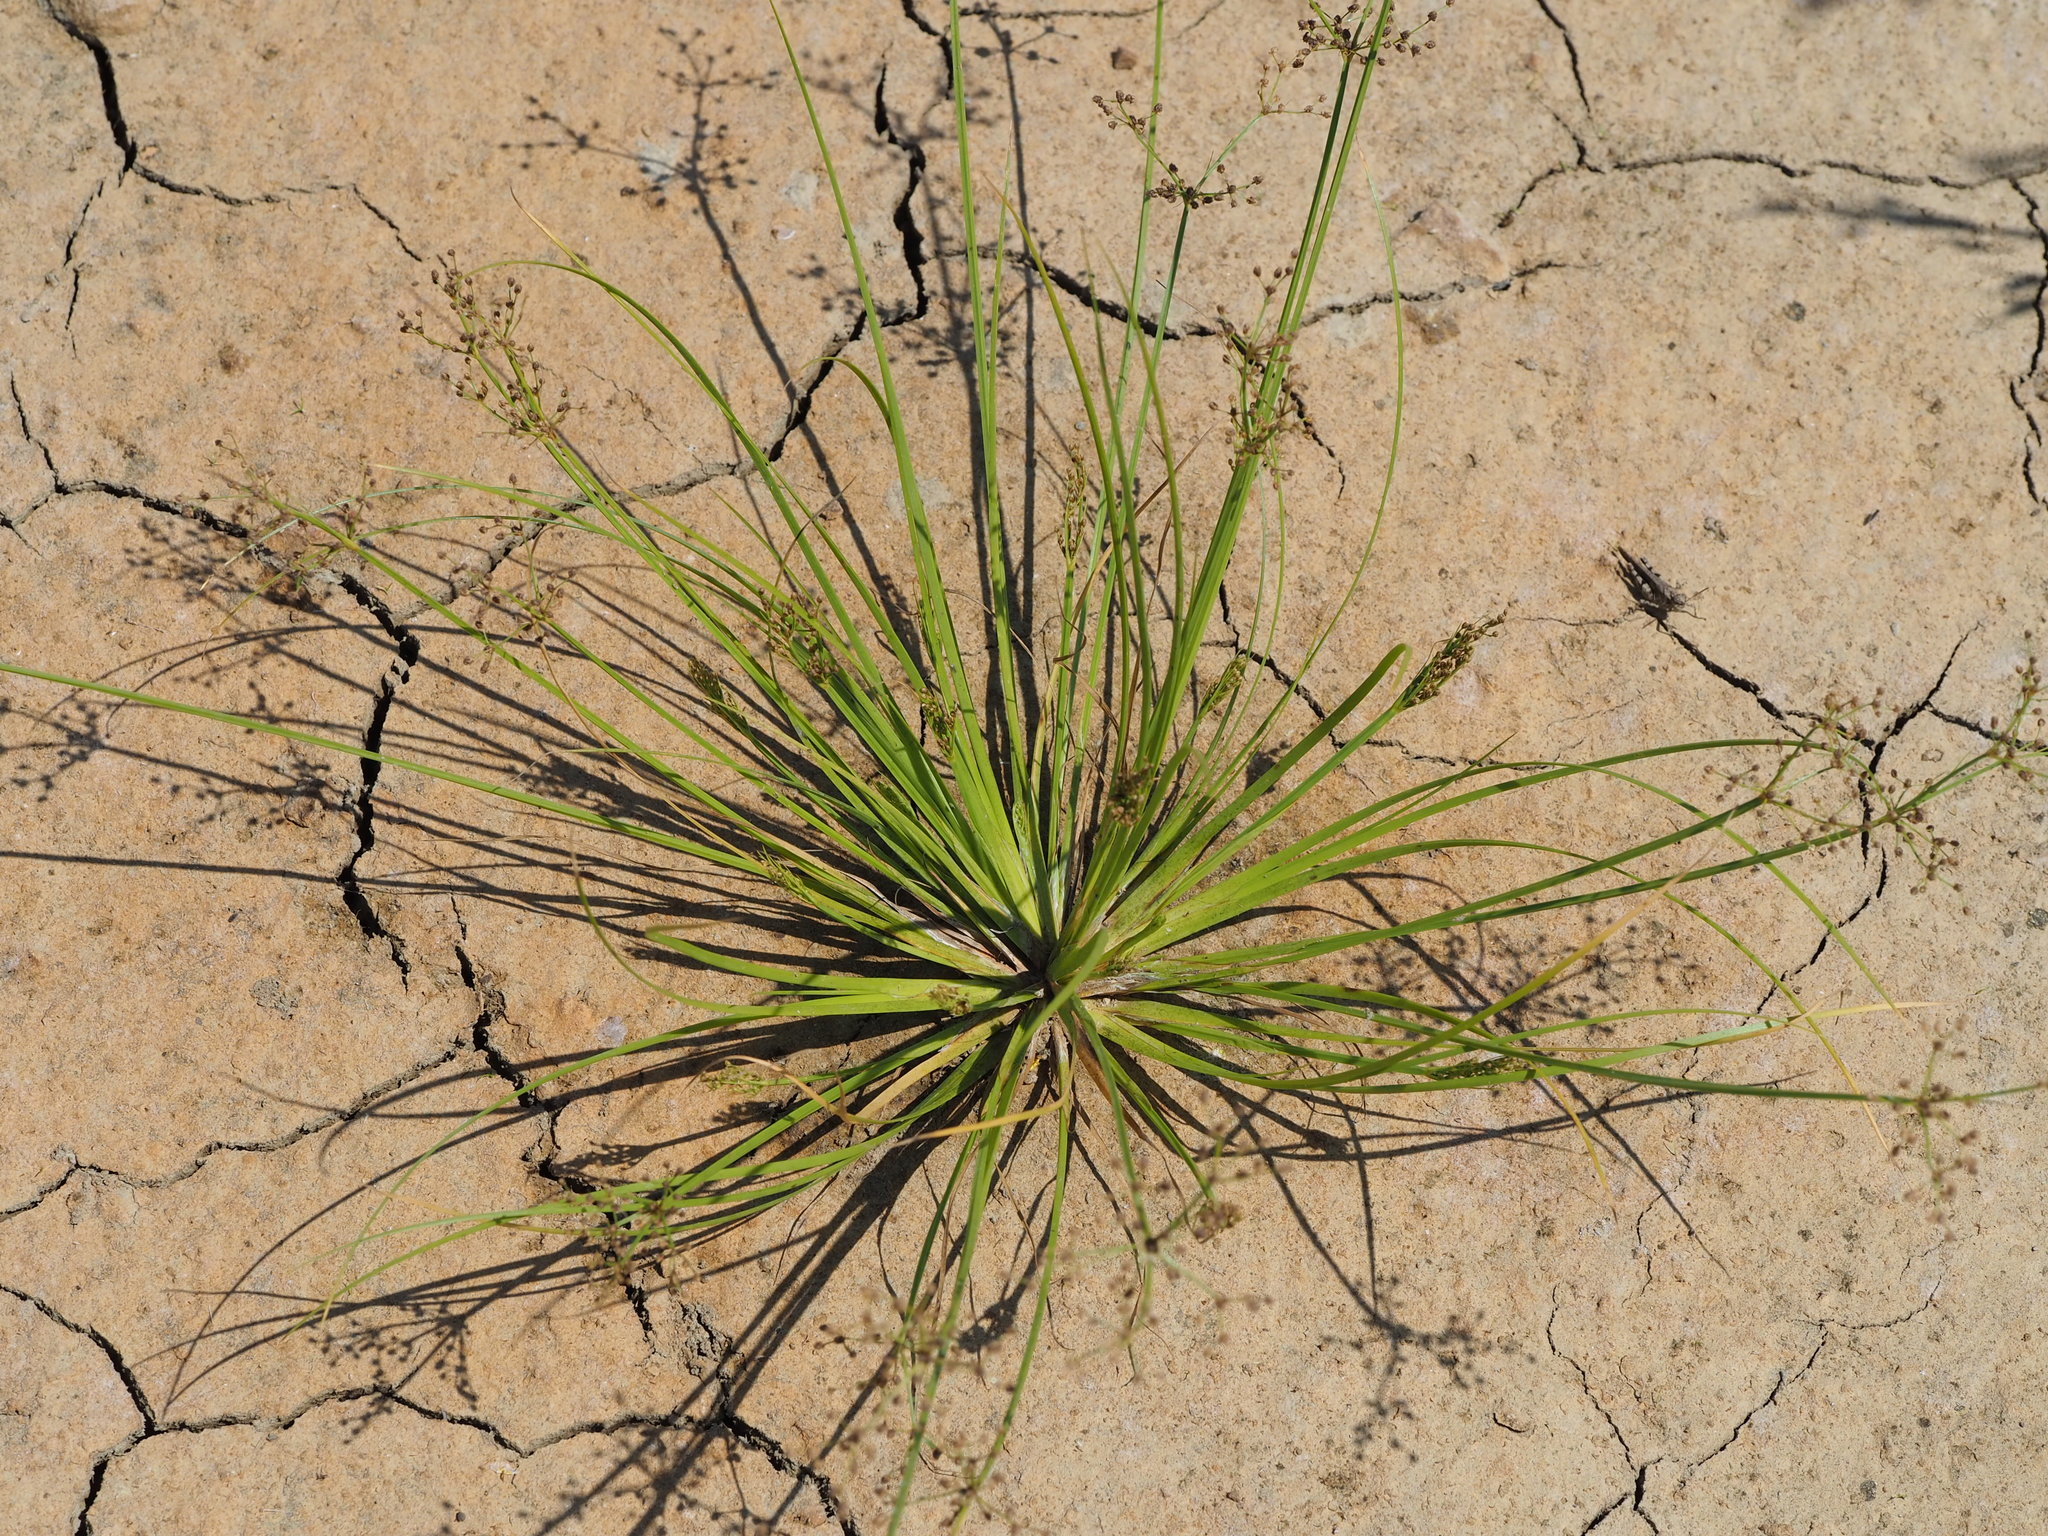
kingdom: Plantae
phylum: Tracheophyta
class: Liliopsida
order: Poales
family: Cyperaceae
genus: Fimbristylis
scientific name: Fimbristylis littoralis
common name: Fimbry
